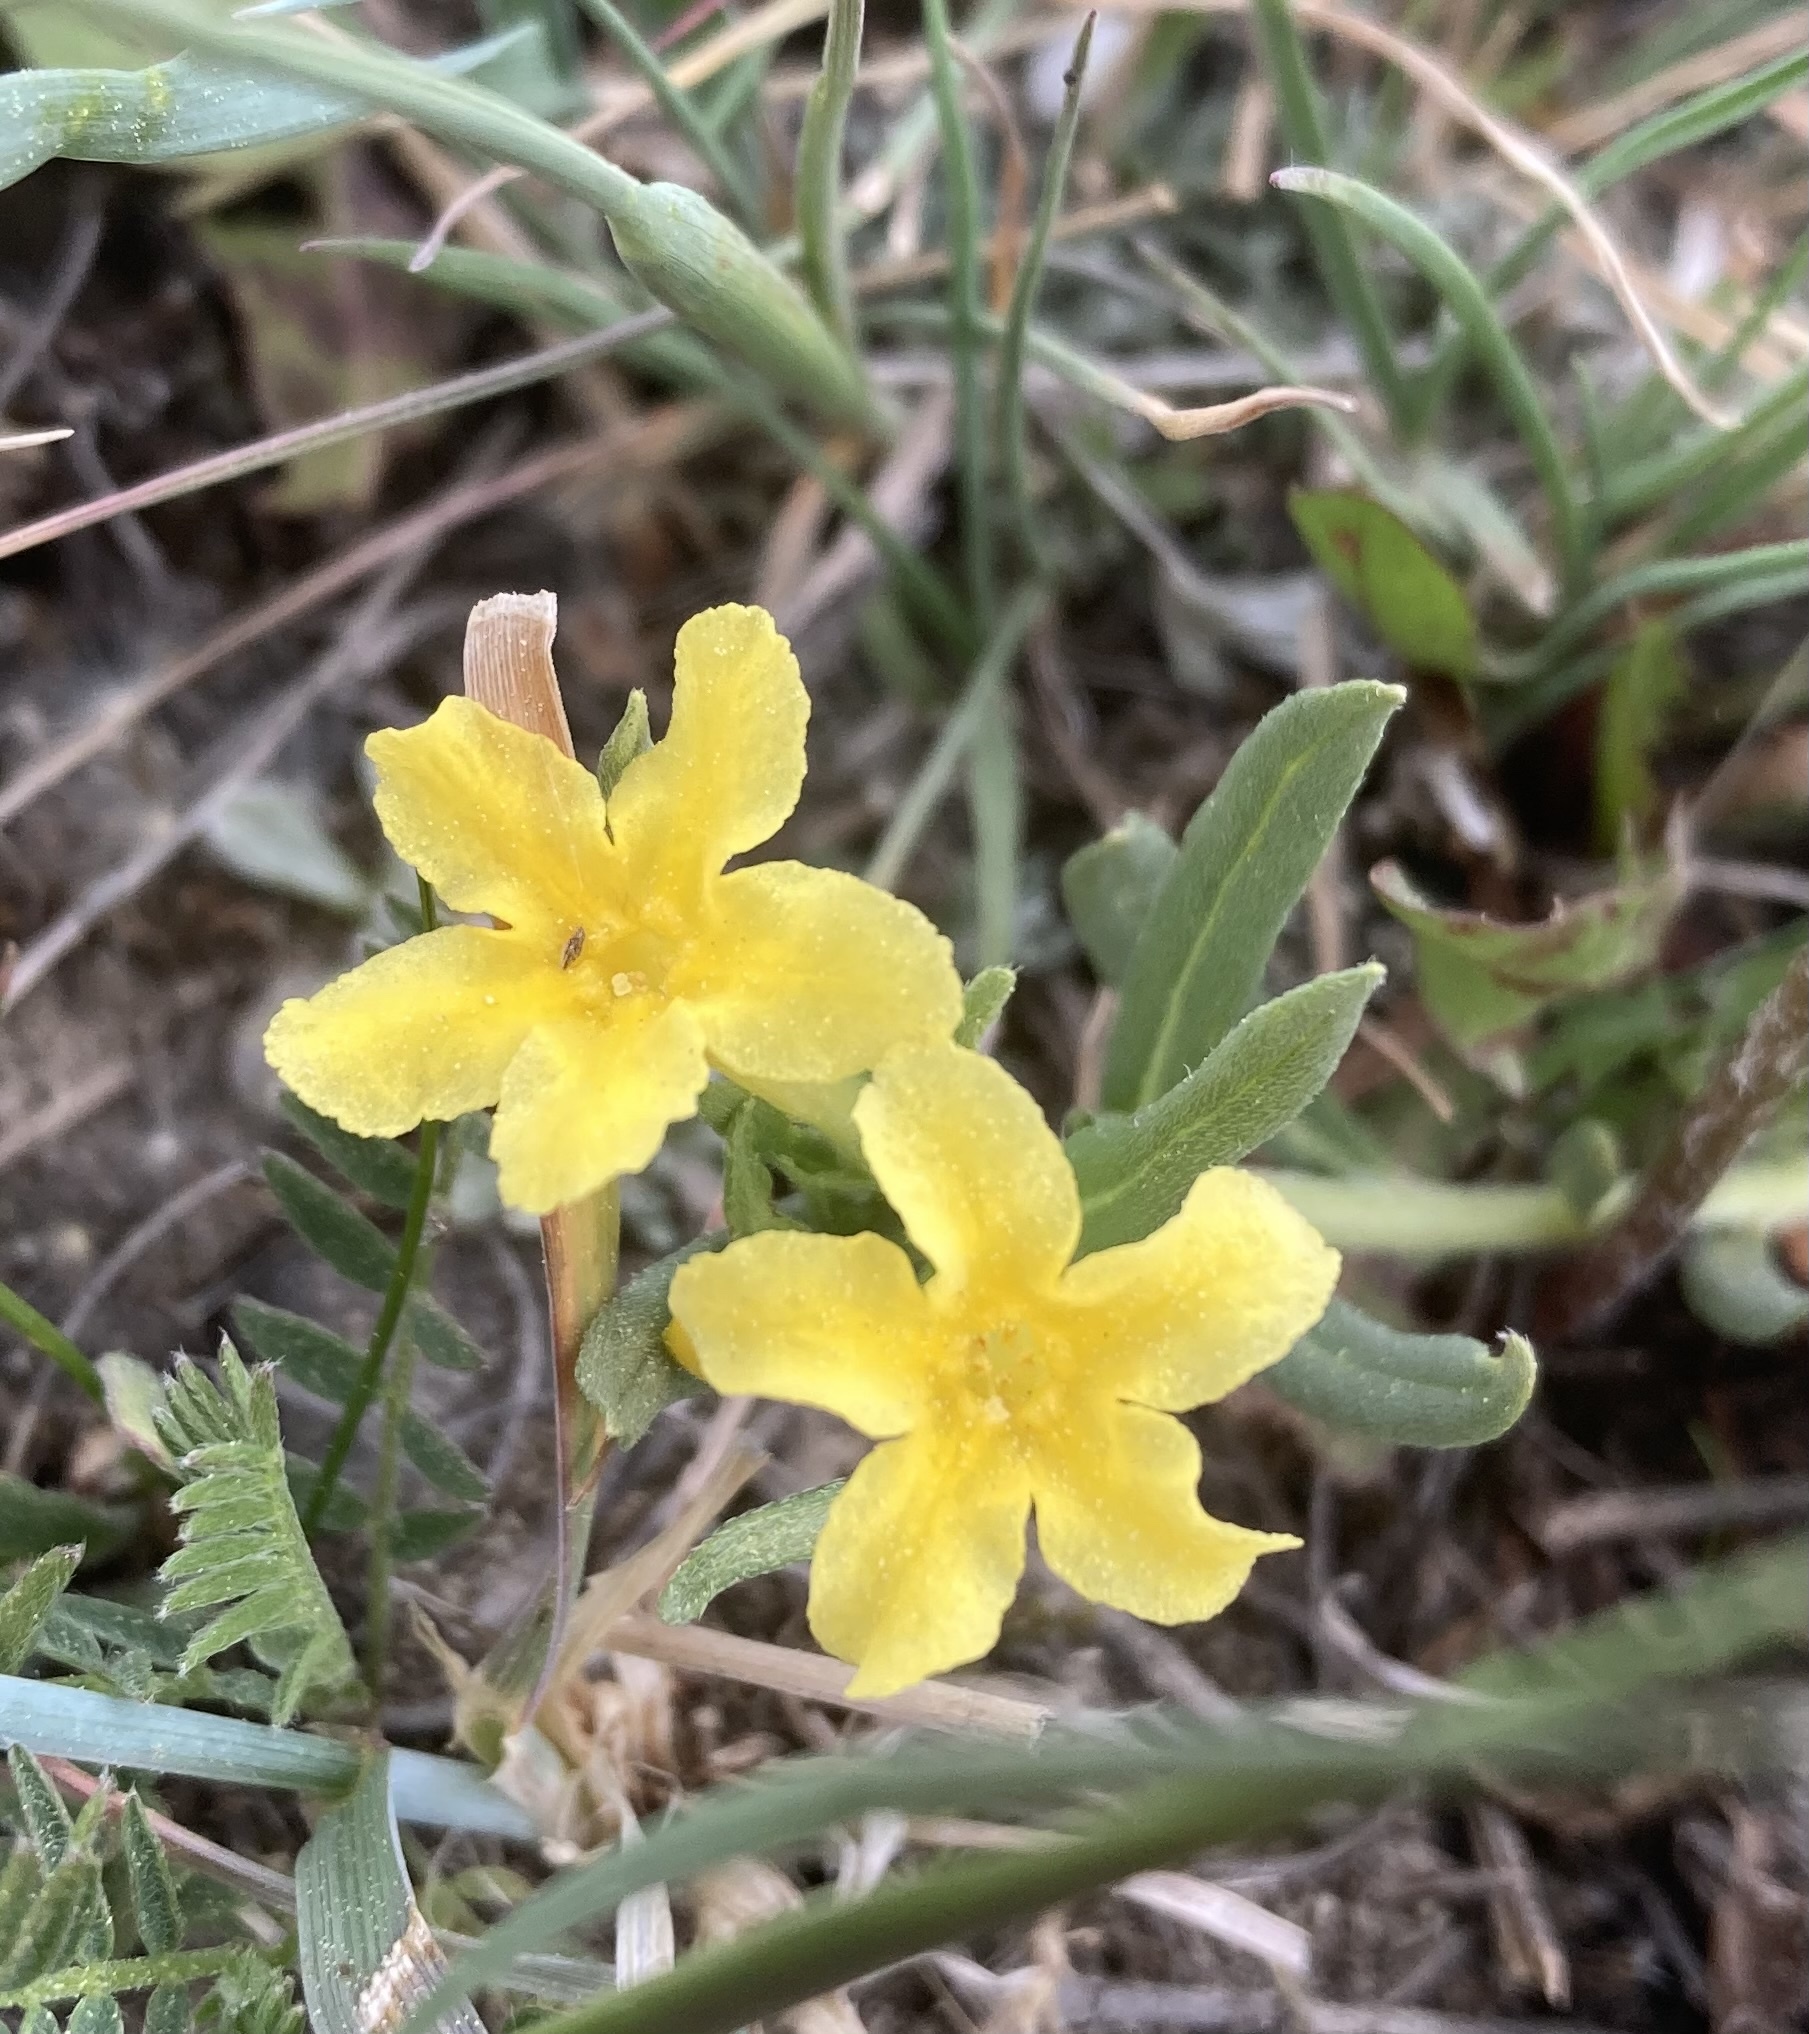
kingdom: Plantae
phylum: Tracheophyta
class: Magnoliopsida
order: Boraginales
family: Boraginaceae
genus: Lithospermum
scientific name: Lithospermum incisum
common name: Fringed gromwell
